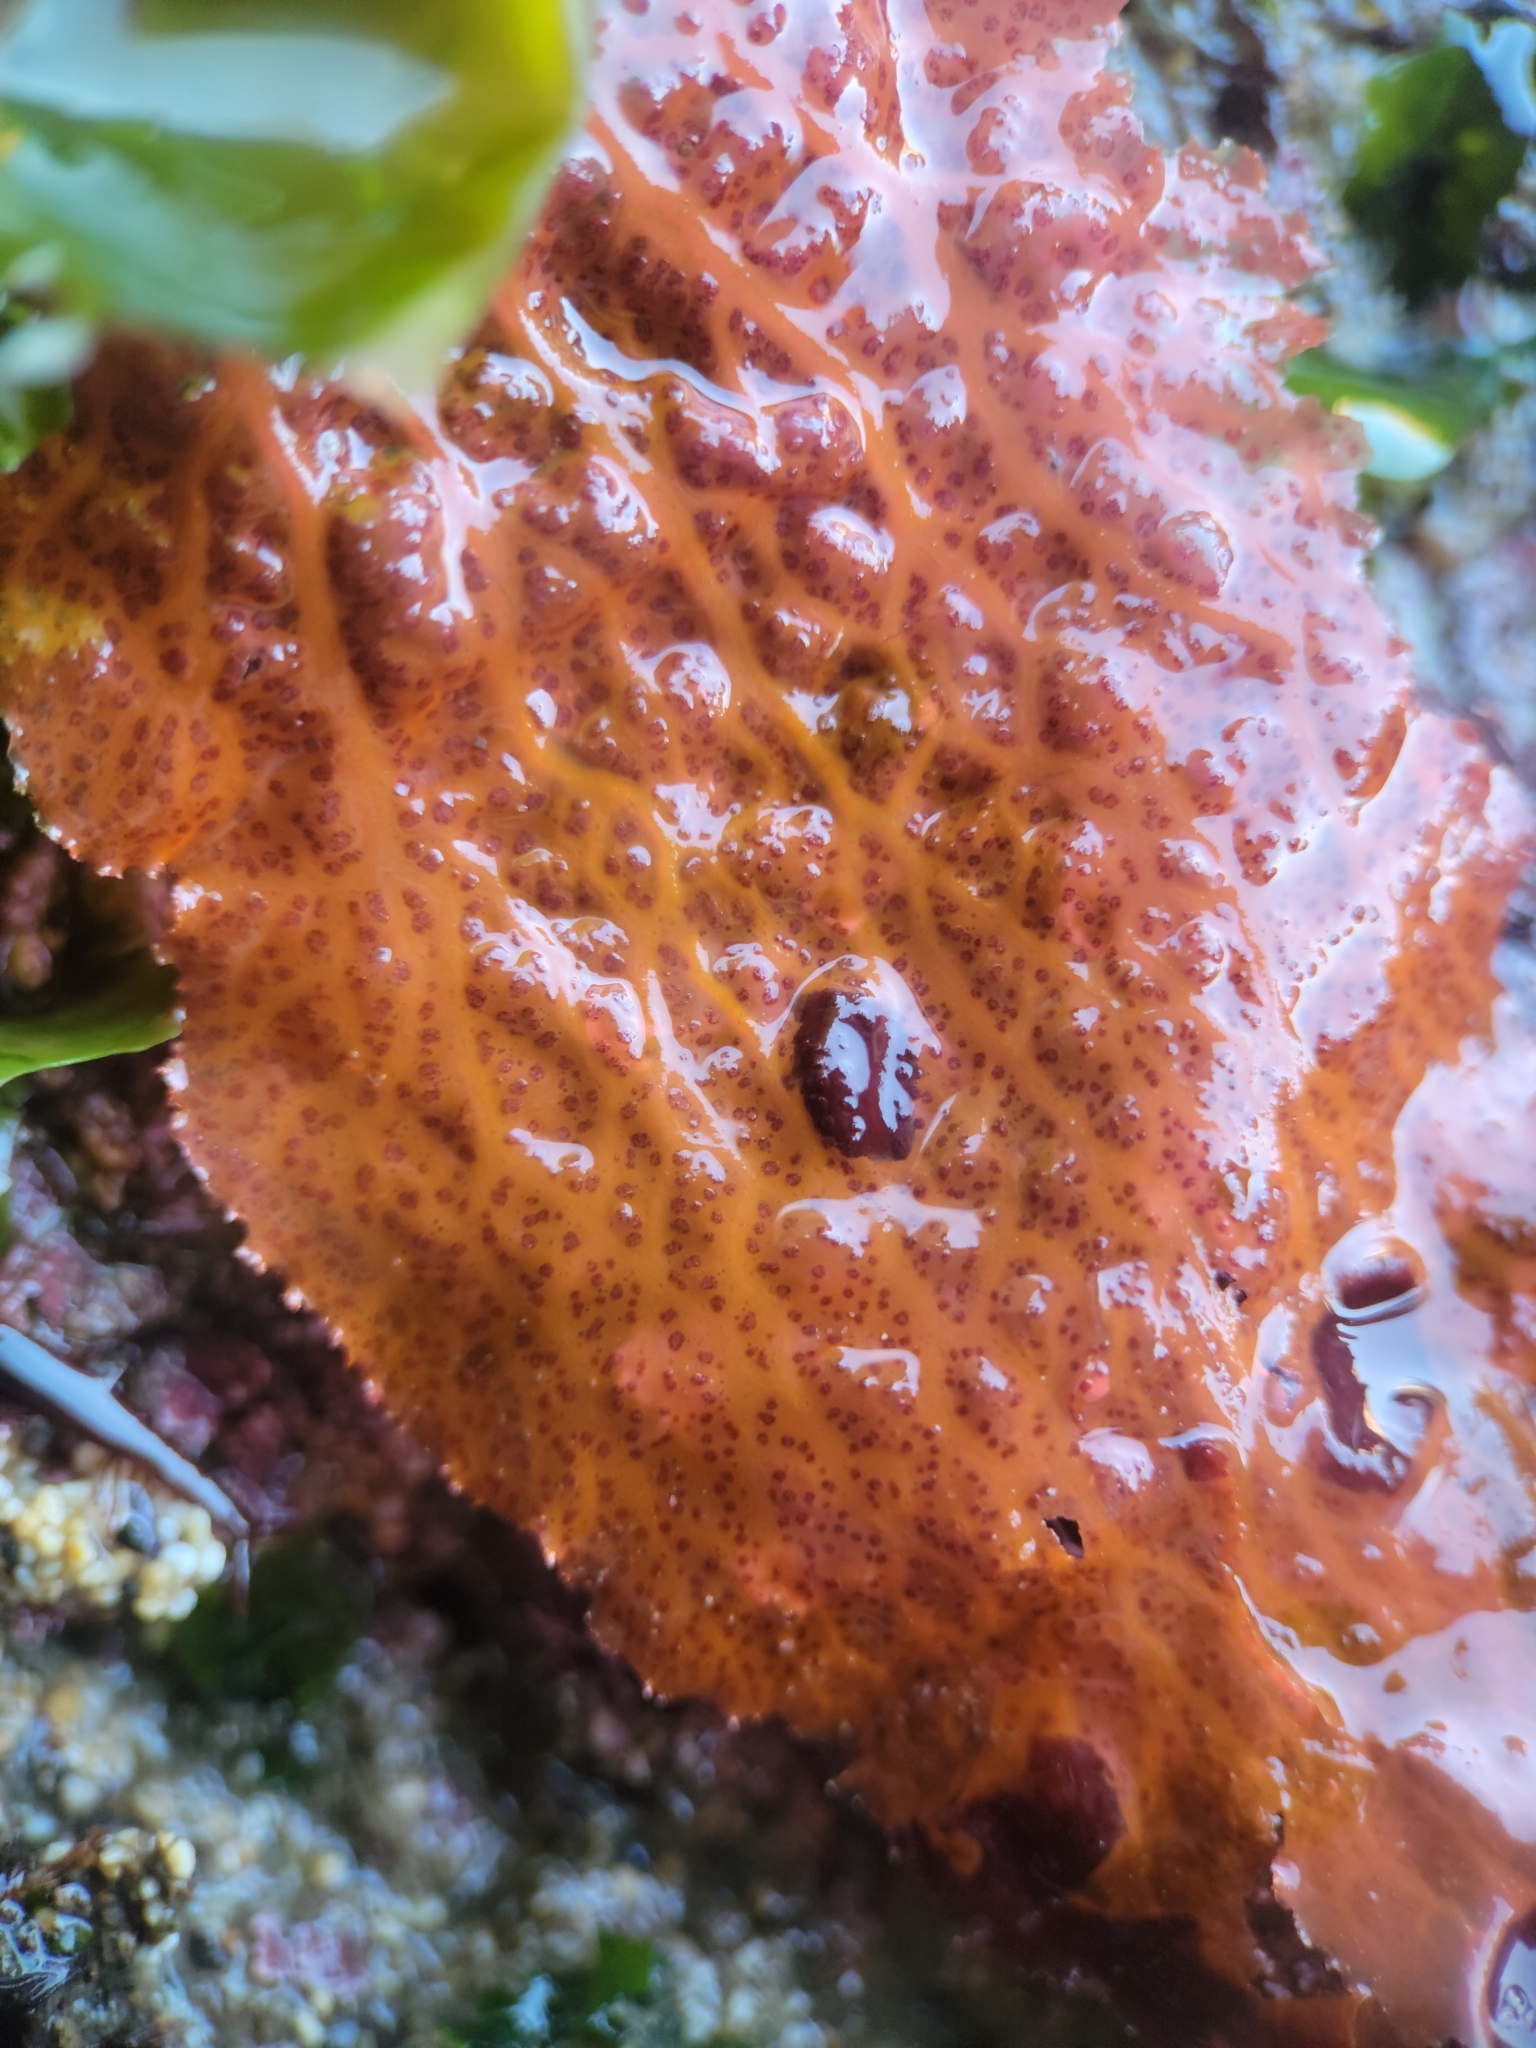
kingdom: Plantae
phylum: Rhodophyta
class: Florideophyceae
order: Ceramiales
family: Delesseriaceae
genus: Polyneura
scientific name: Polyneura latissima
